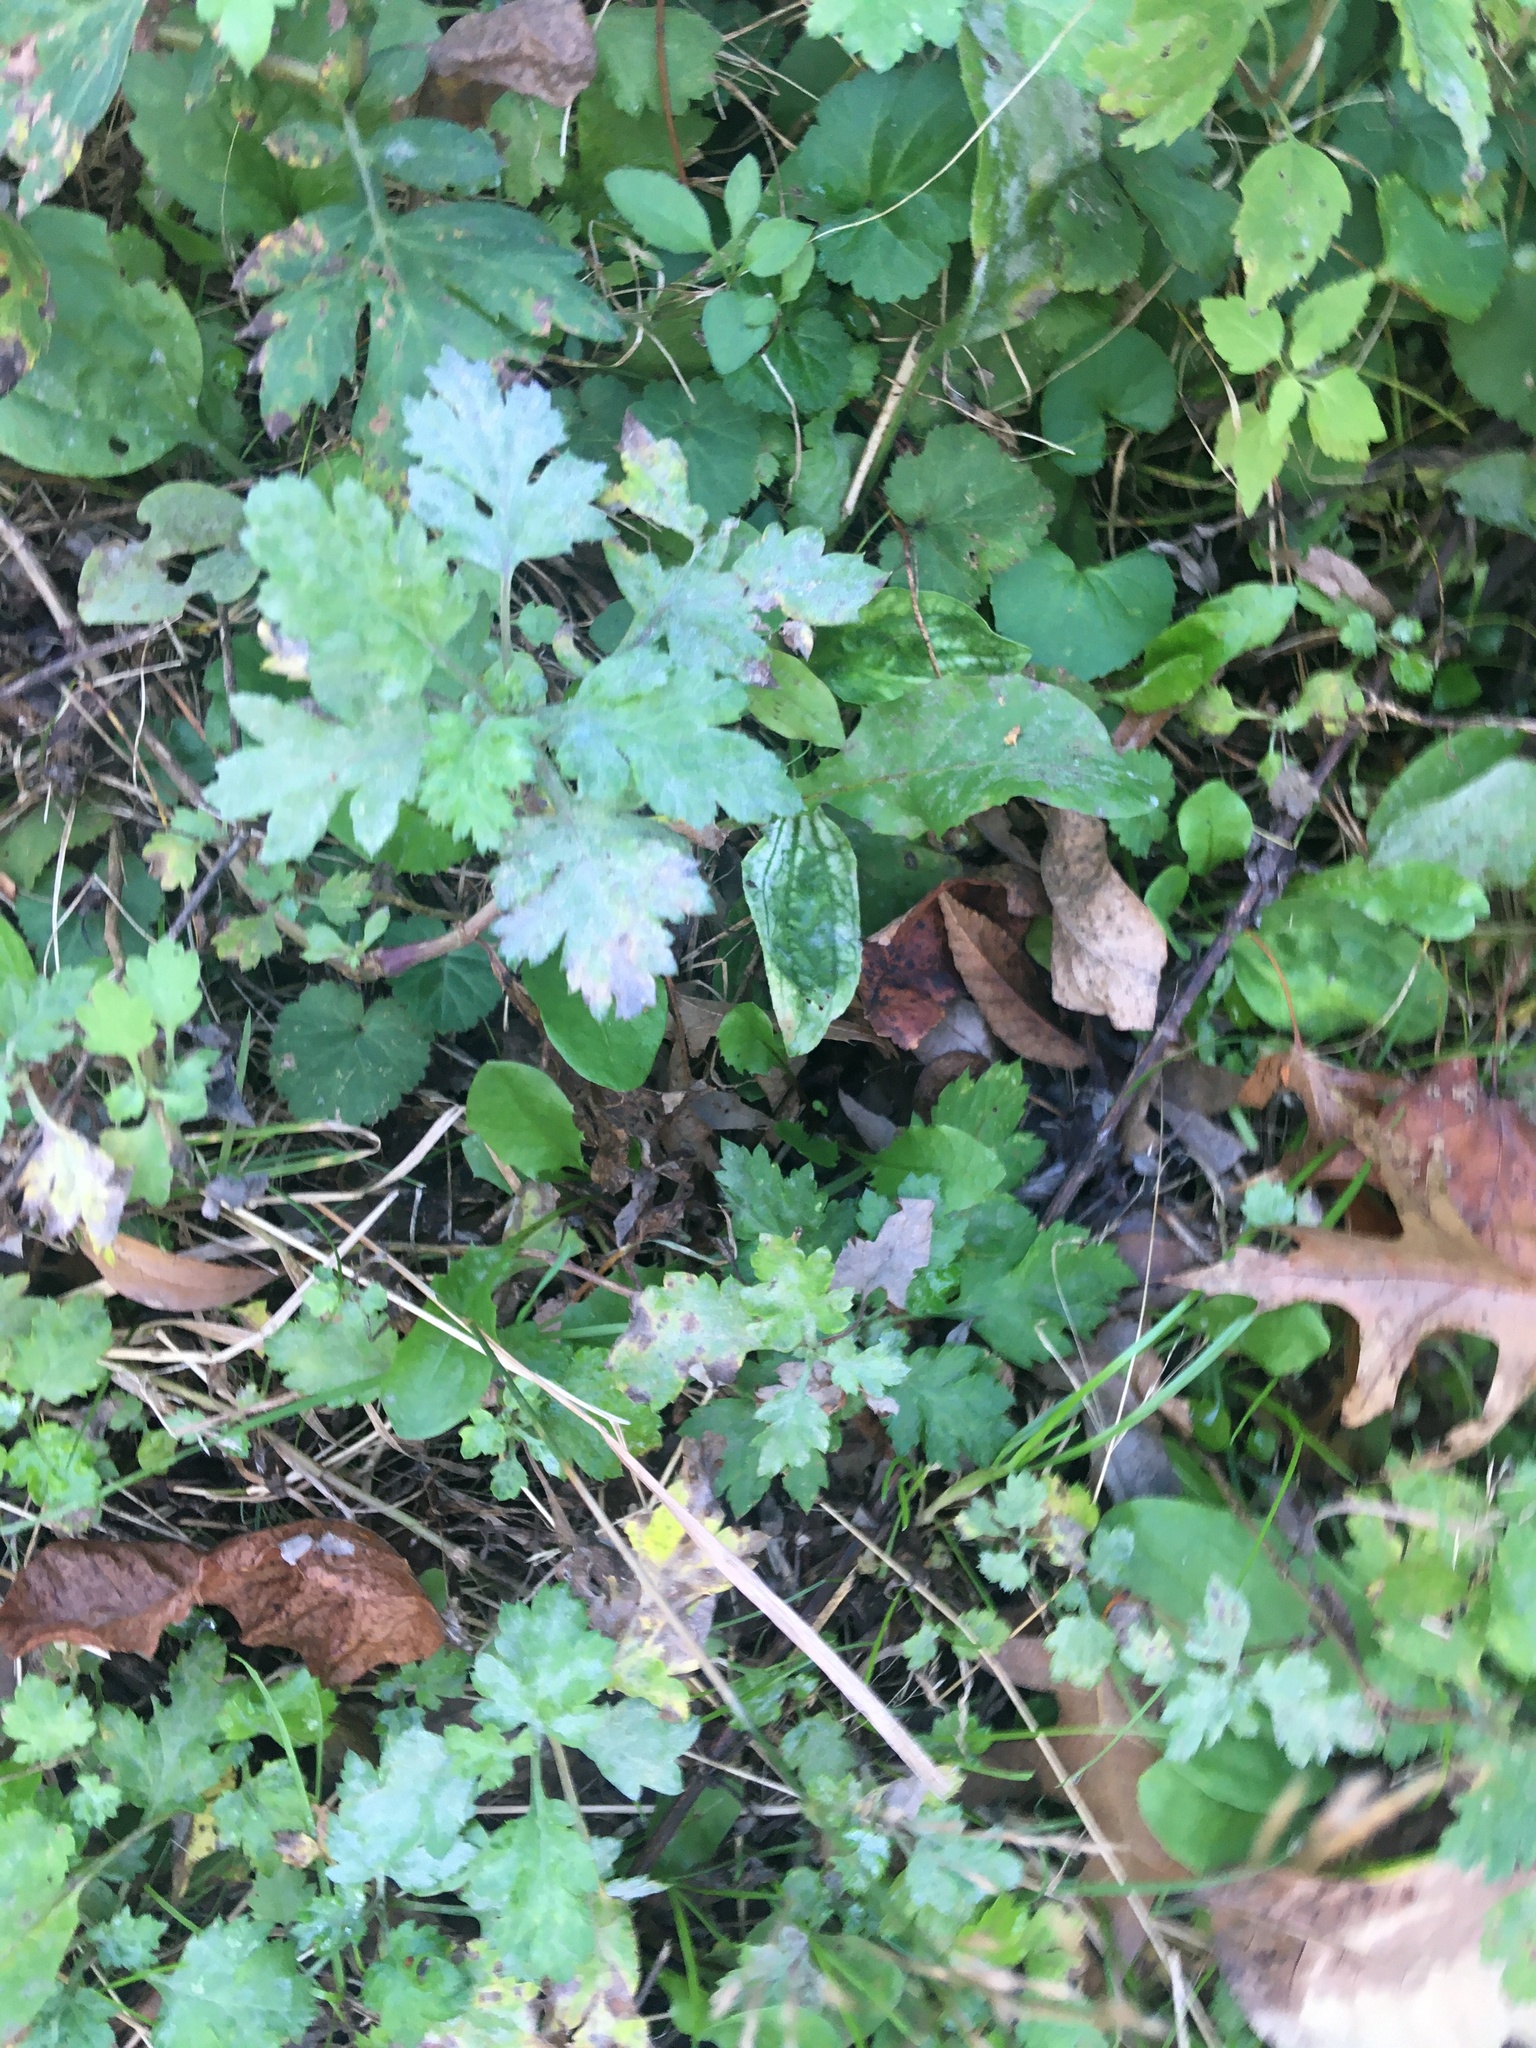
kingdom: Plantae
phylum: Tracheophyta
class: Magnoliopsida
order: Asterales
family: Asteraceae
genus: Artemisia
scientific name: Artemisia vulgaris
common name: Mugwort
